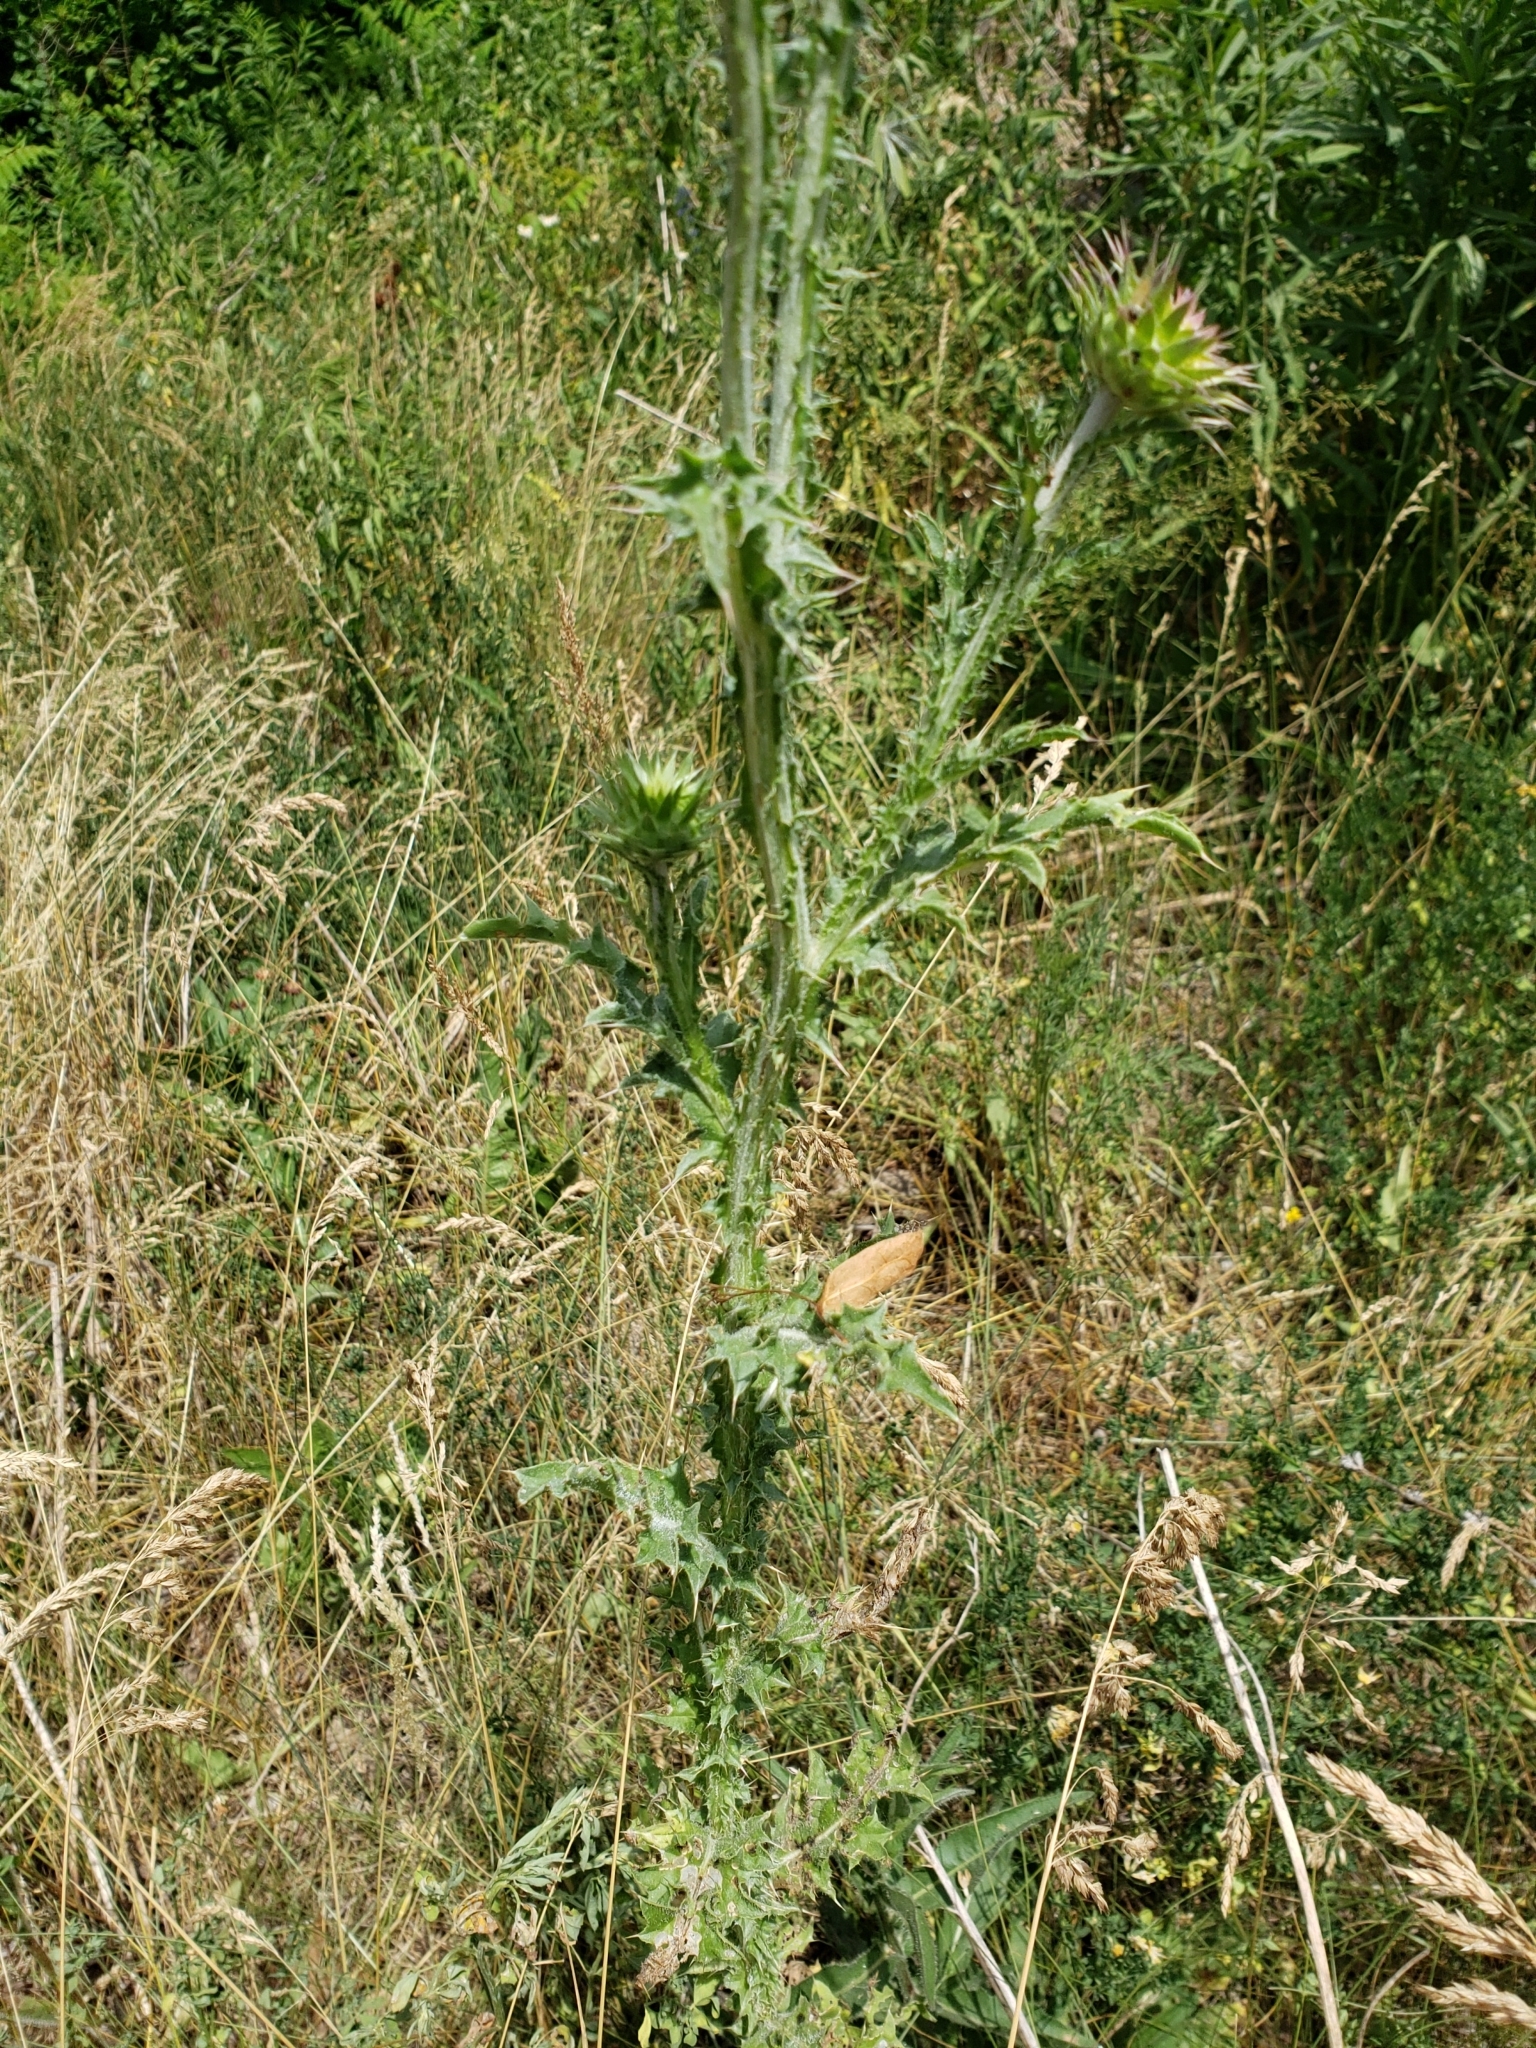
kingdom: Plantae
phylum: Tracheophyta
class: Magnoliopsida
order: Asterales
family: Asteraceae
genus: Carduus
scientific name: Carduus nutans
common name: Musk thistle
